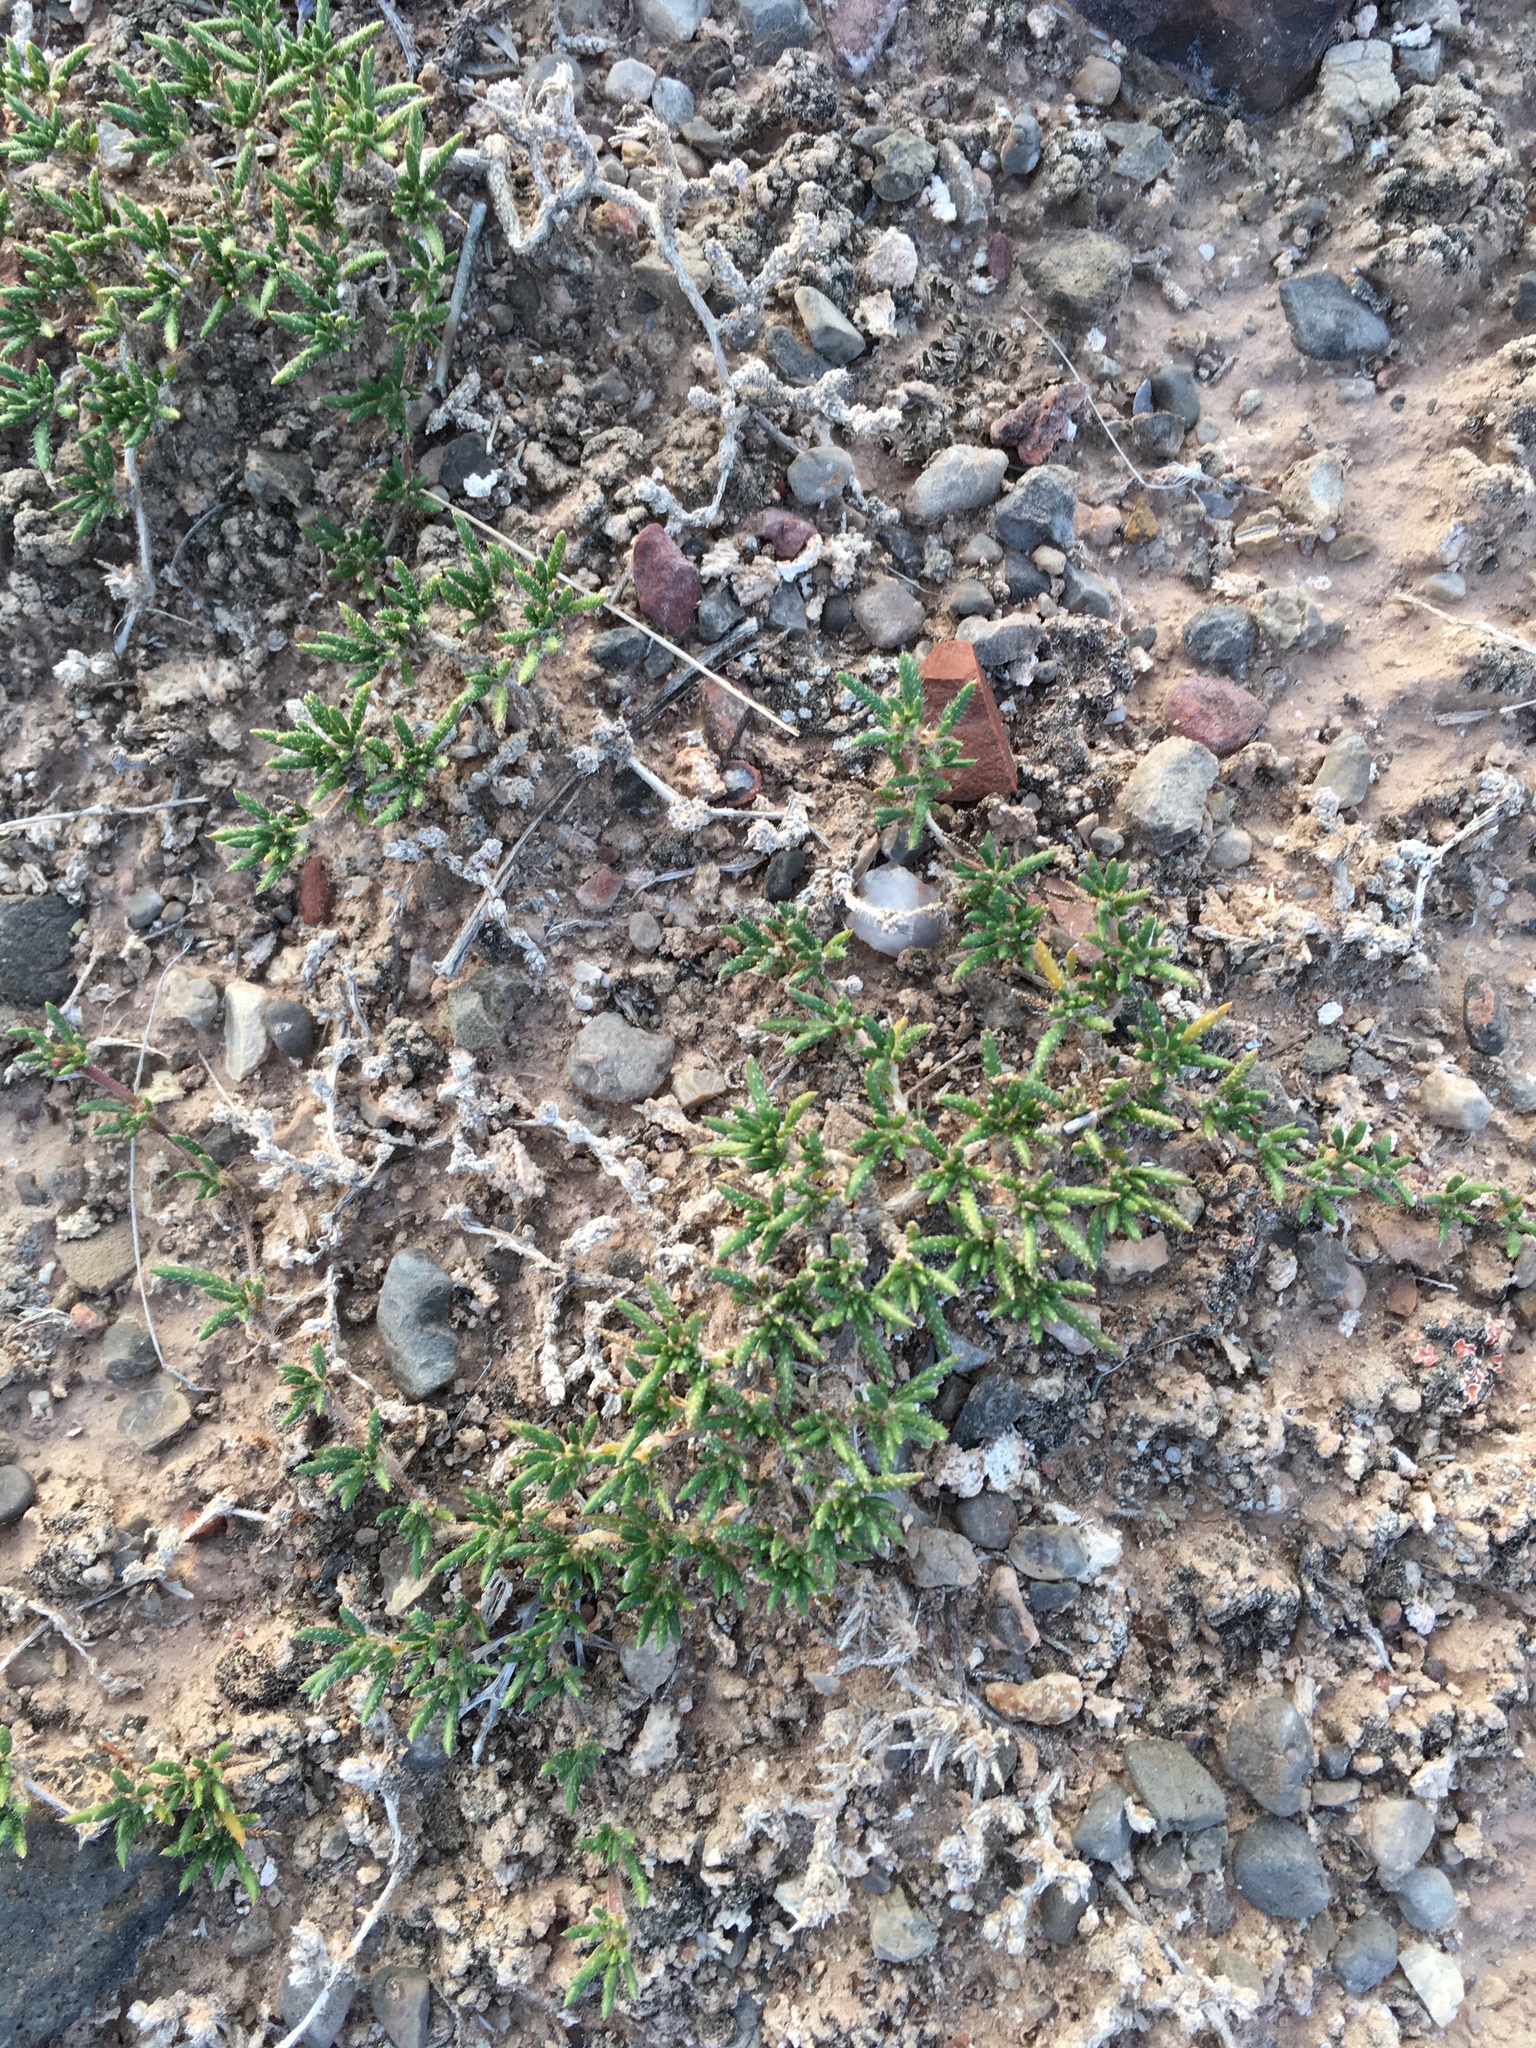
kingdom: Plantae
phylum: Tracheophyta
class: Magnoliopsida
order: Boraginales
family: Ehretiaceae
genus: Tiquilia
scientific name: Tiquilia hispidissima
